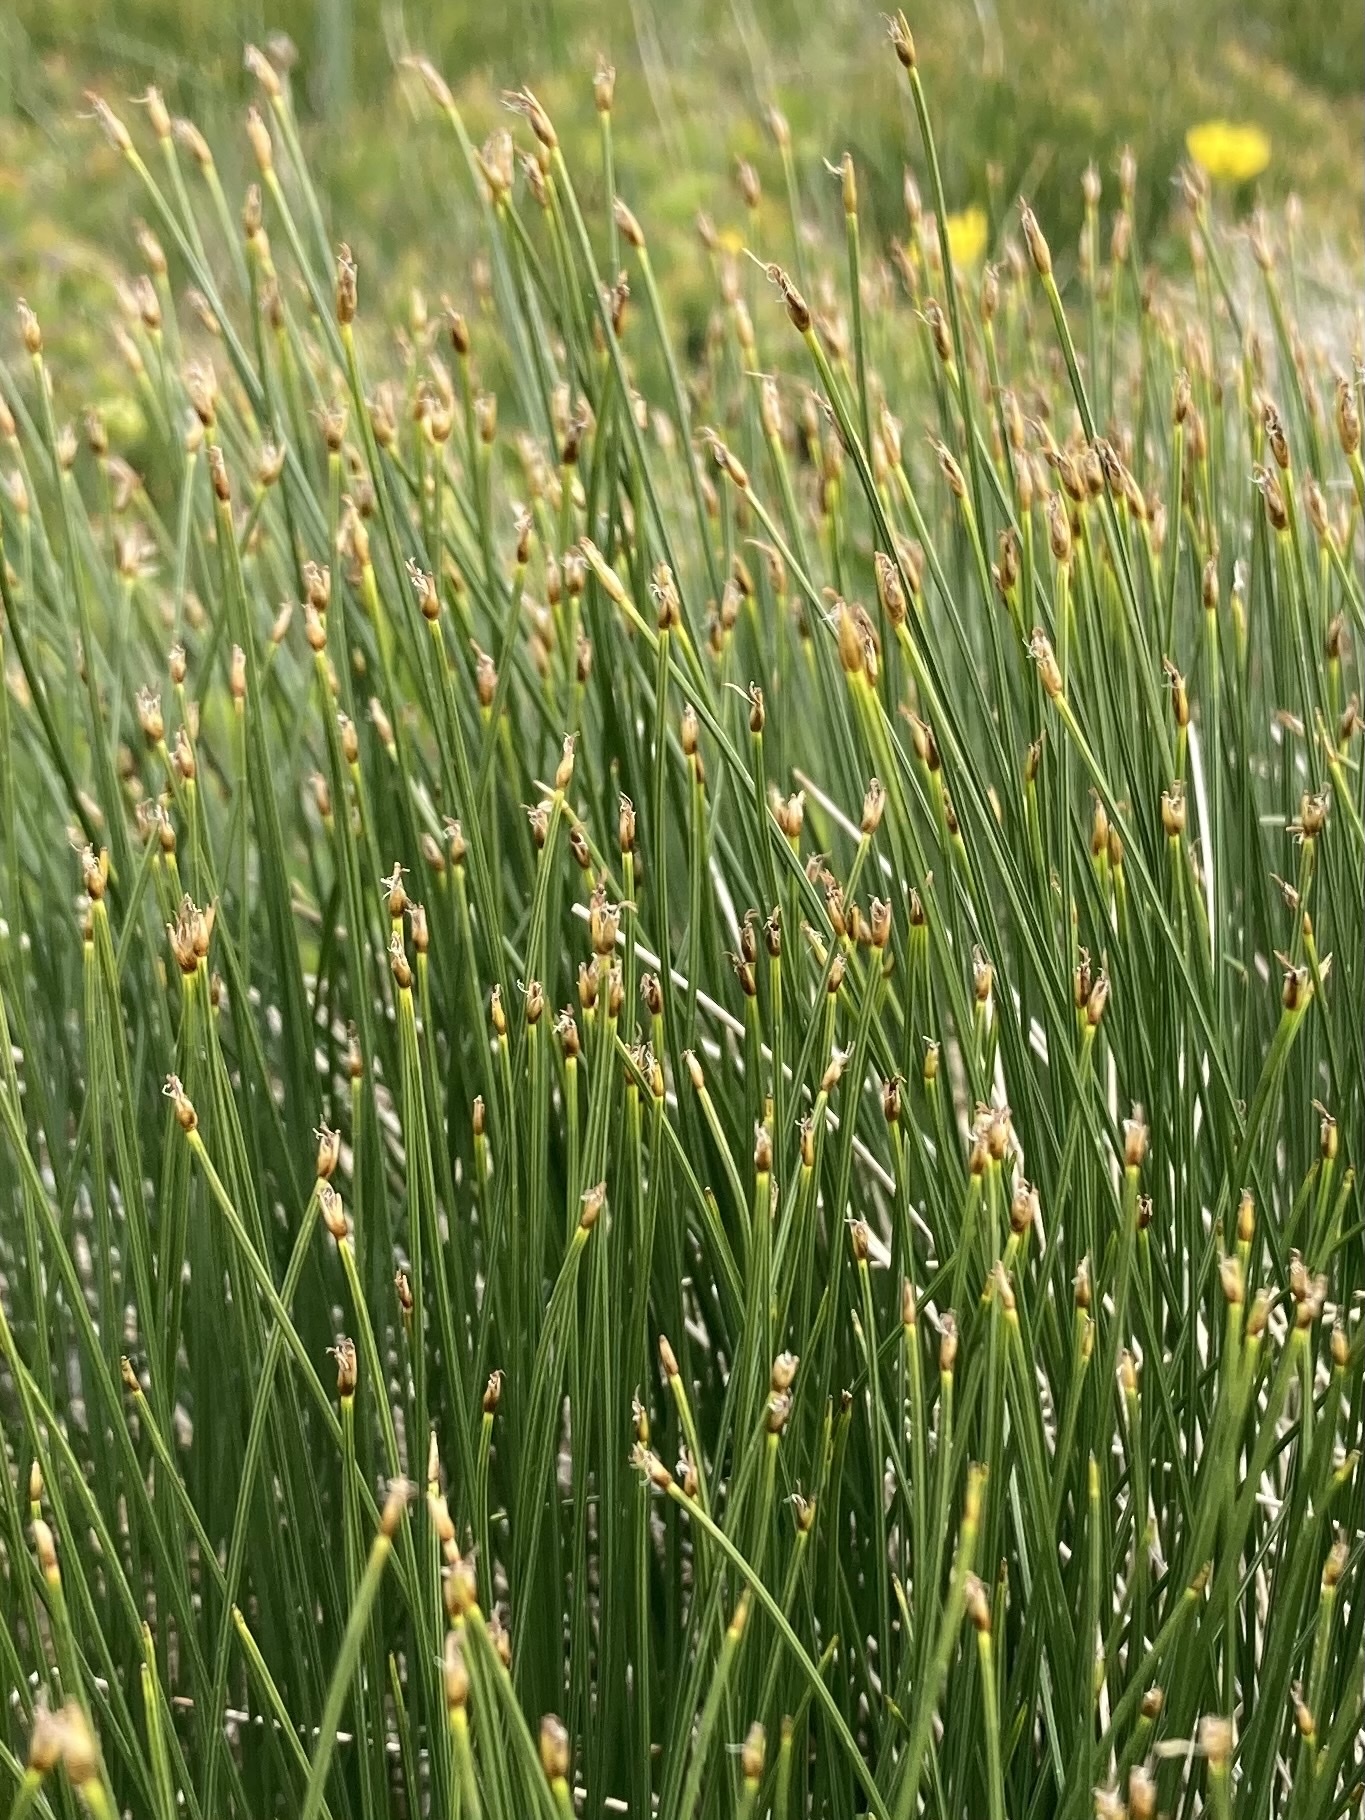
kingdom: Plantae
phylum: Tracheophyta
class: Liliopsida
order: Poales
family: Cyperaceae
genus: Trichophorum
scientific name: Trichophorum cespitosum
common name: Cespitose bulrush
